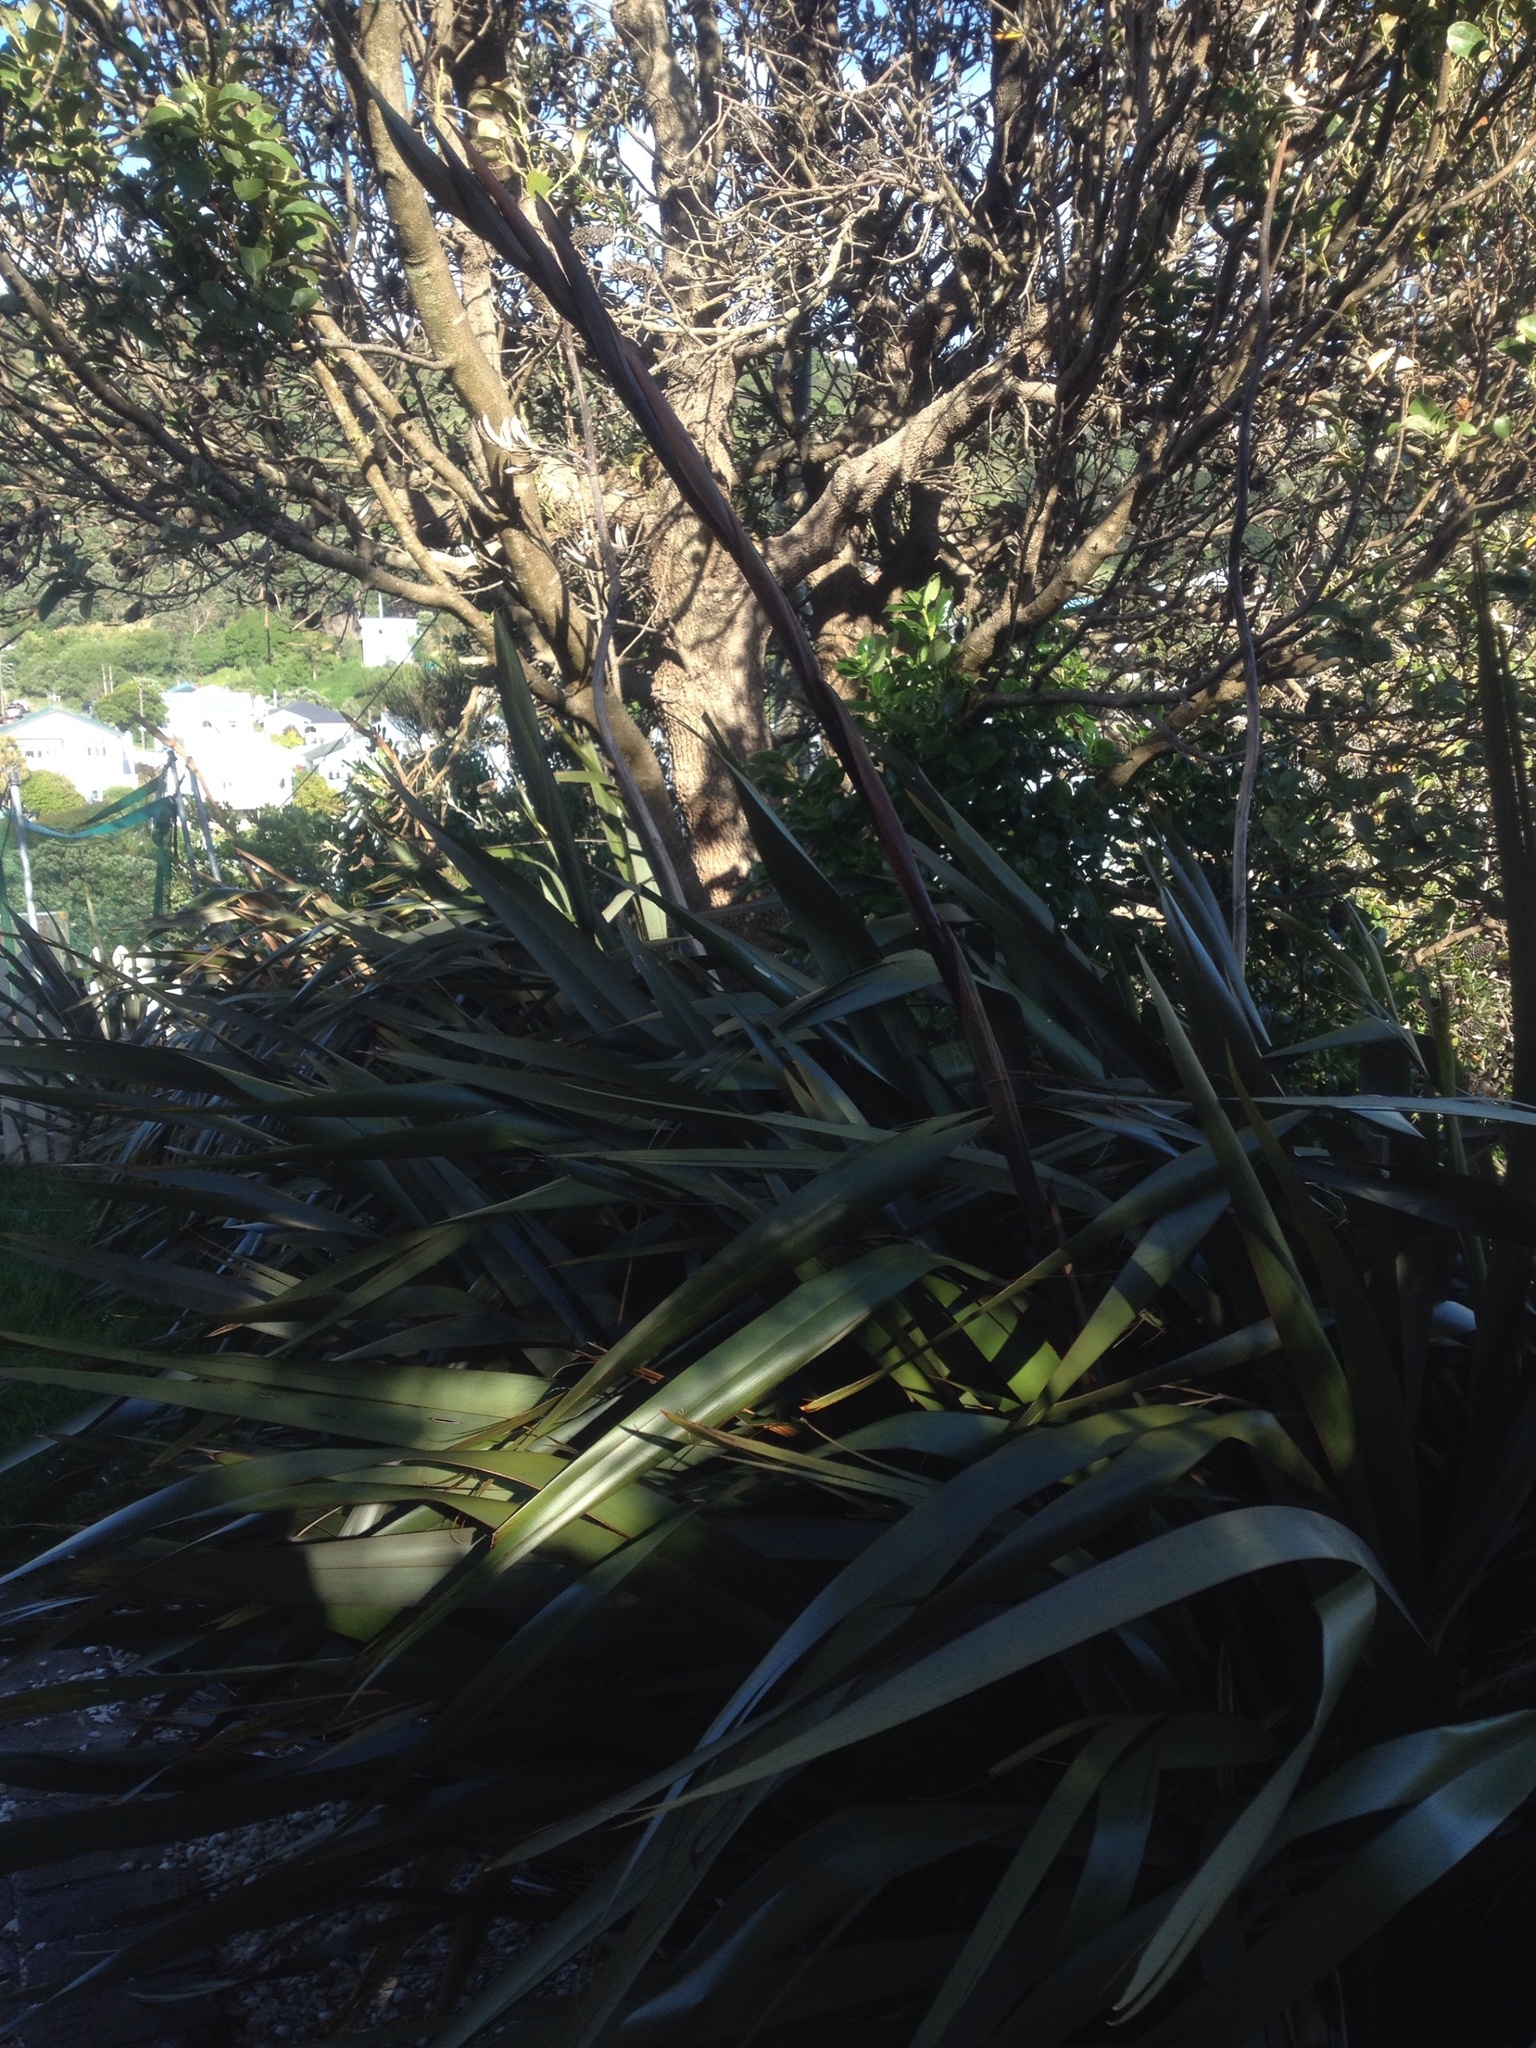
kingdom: Plantae
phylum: Tracheophyta
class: Liliopsida
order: Asparagales
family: Asphodelaceae
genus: Phormium
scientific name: Phormium tenax
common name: New zealand flax
